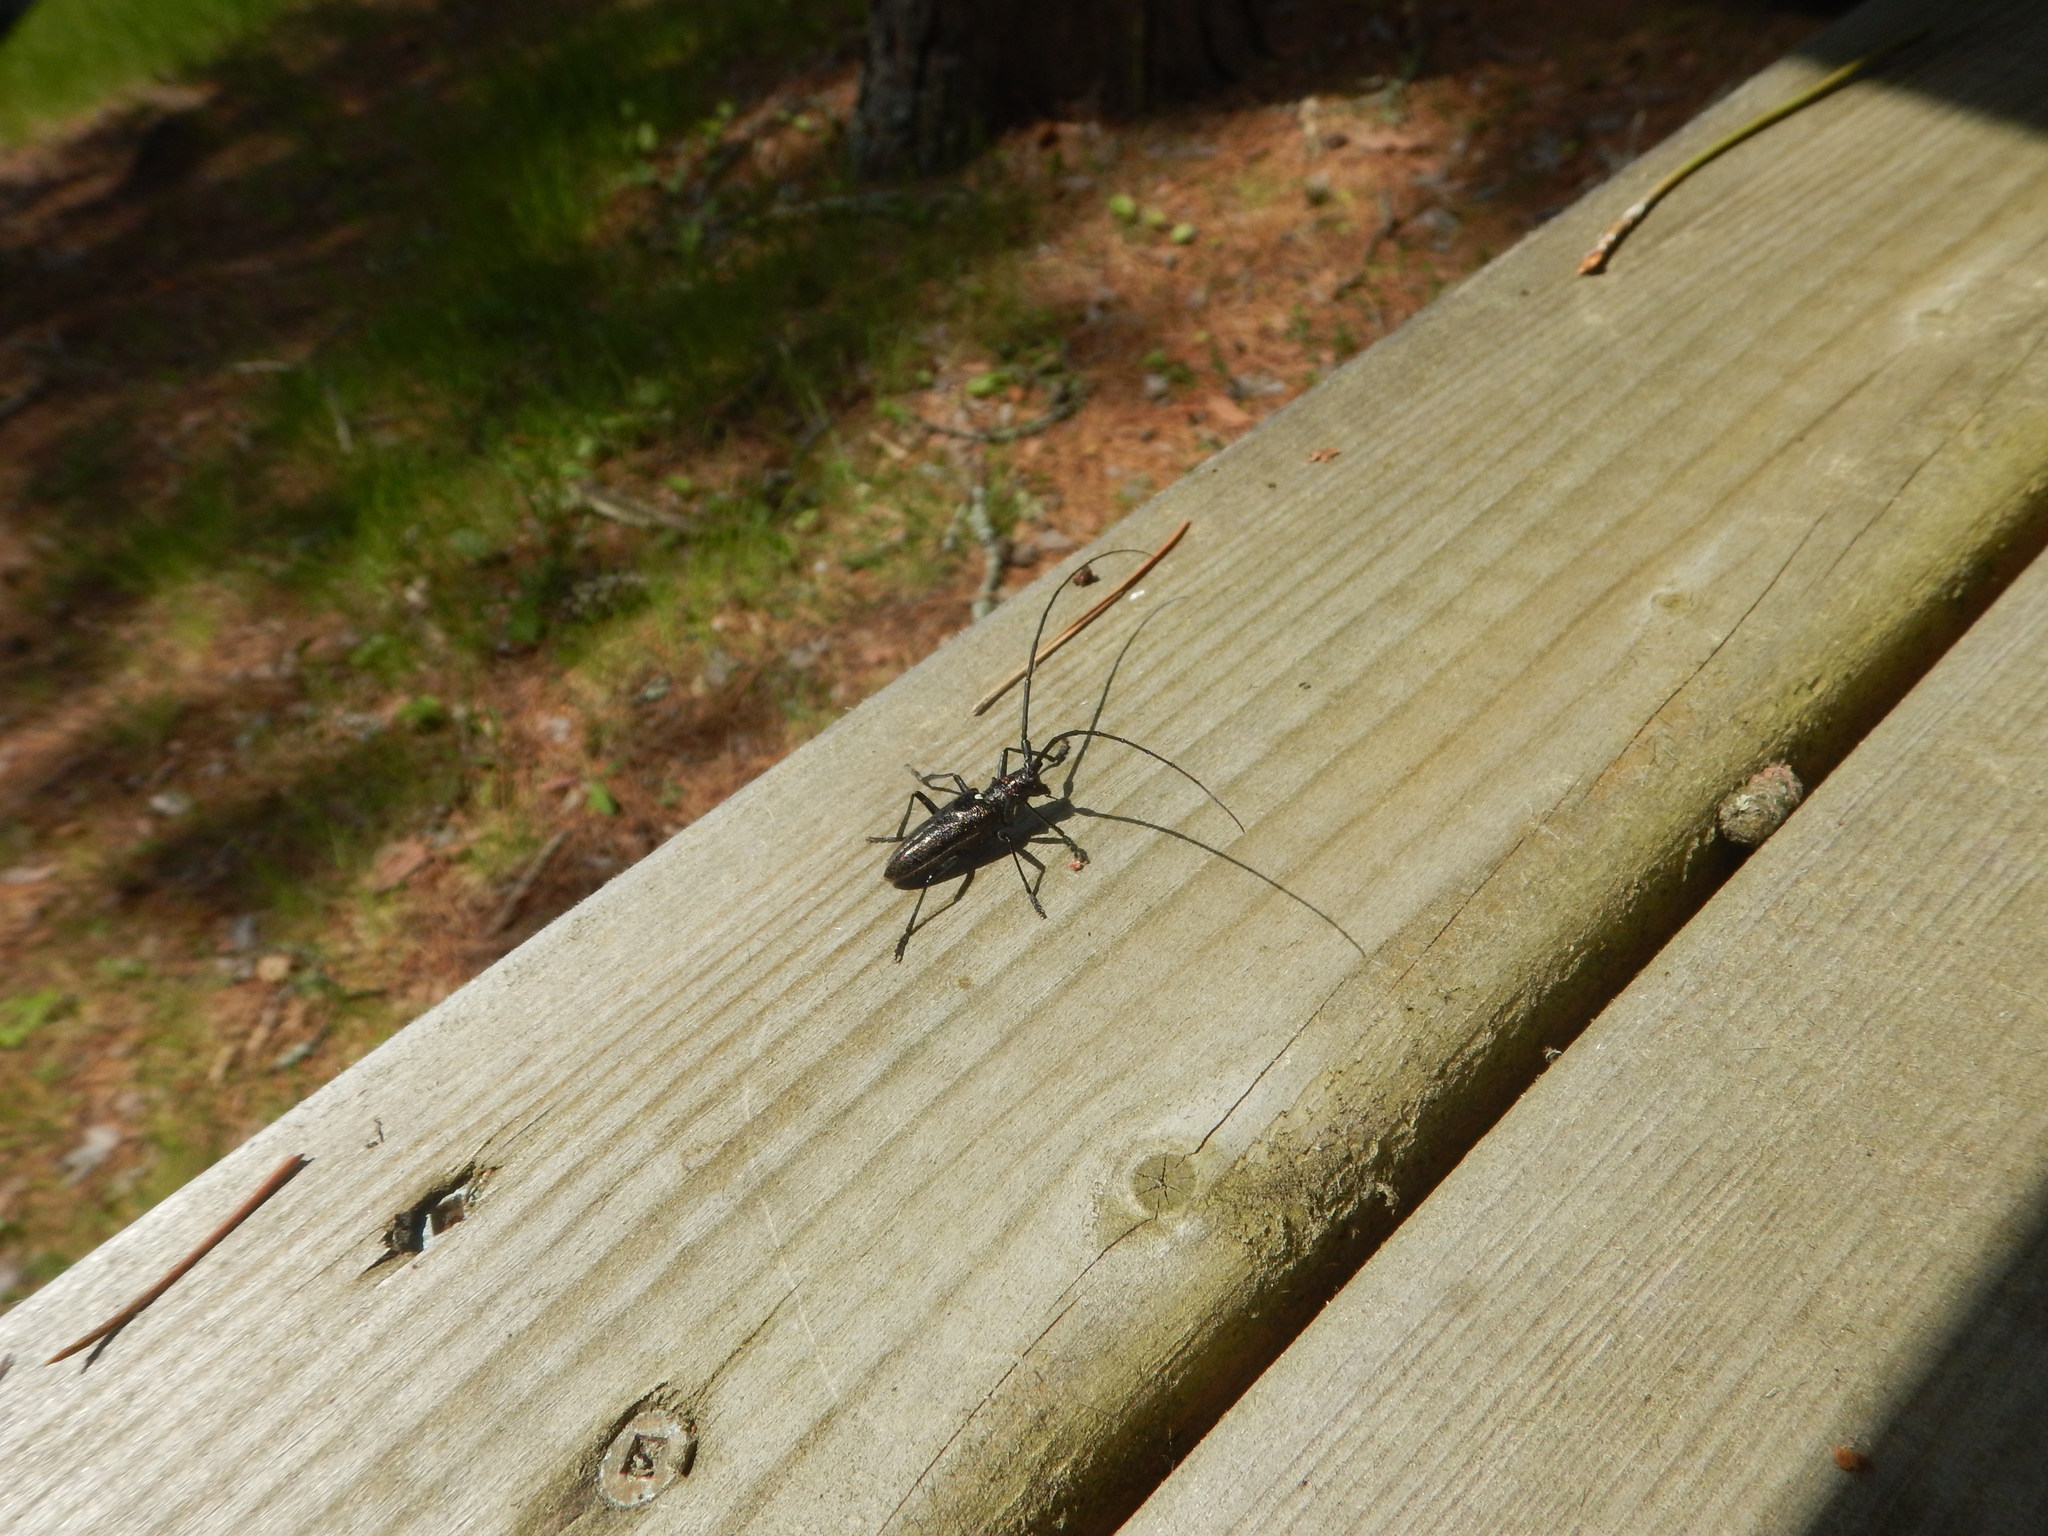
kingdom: Animalia
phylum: Arthropoda
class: Insecta
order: Coleoptera
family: Cerambycidae
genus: Monochamus
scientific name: Monochamus scutellatus
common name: White-spotted sawyer beetle
